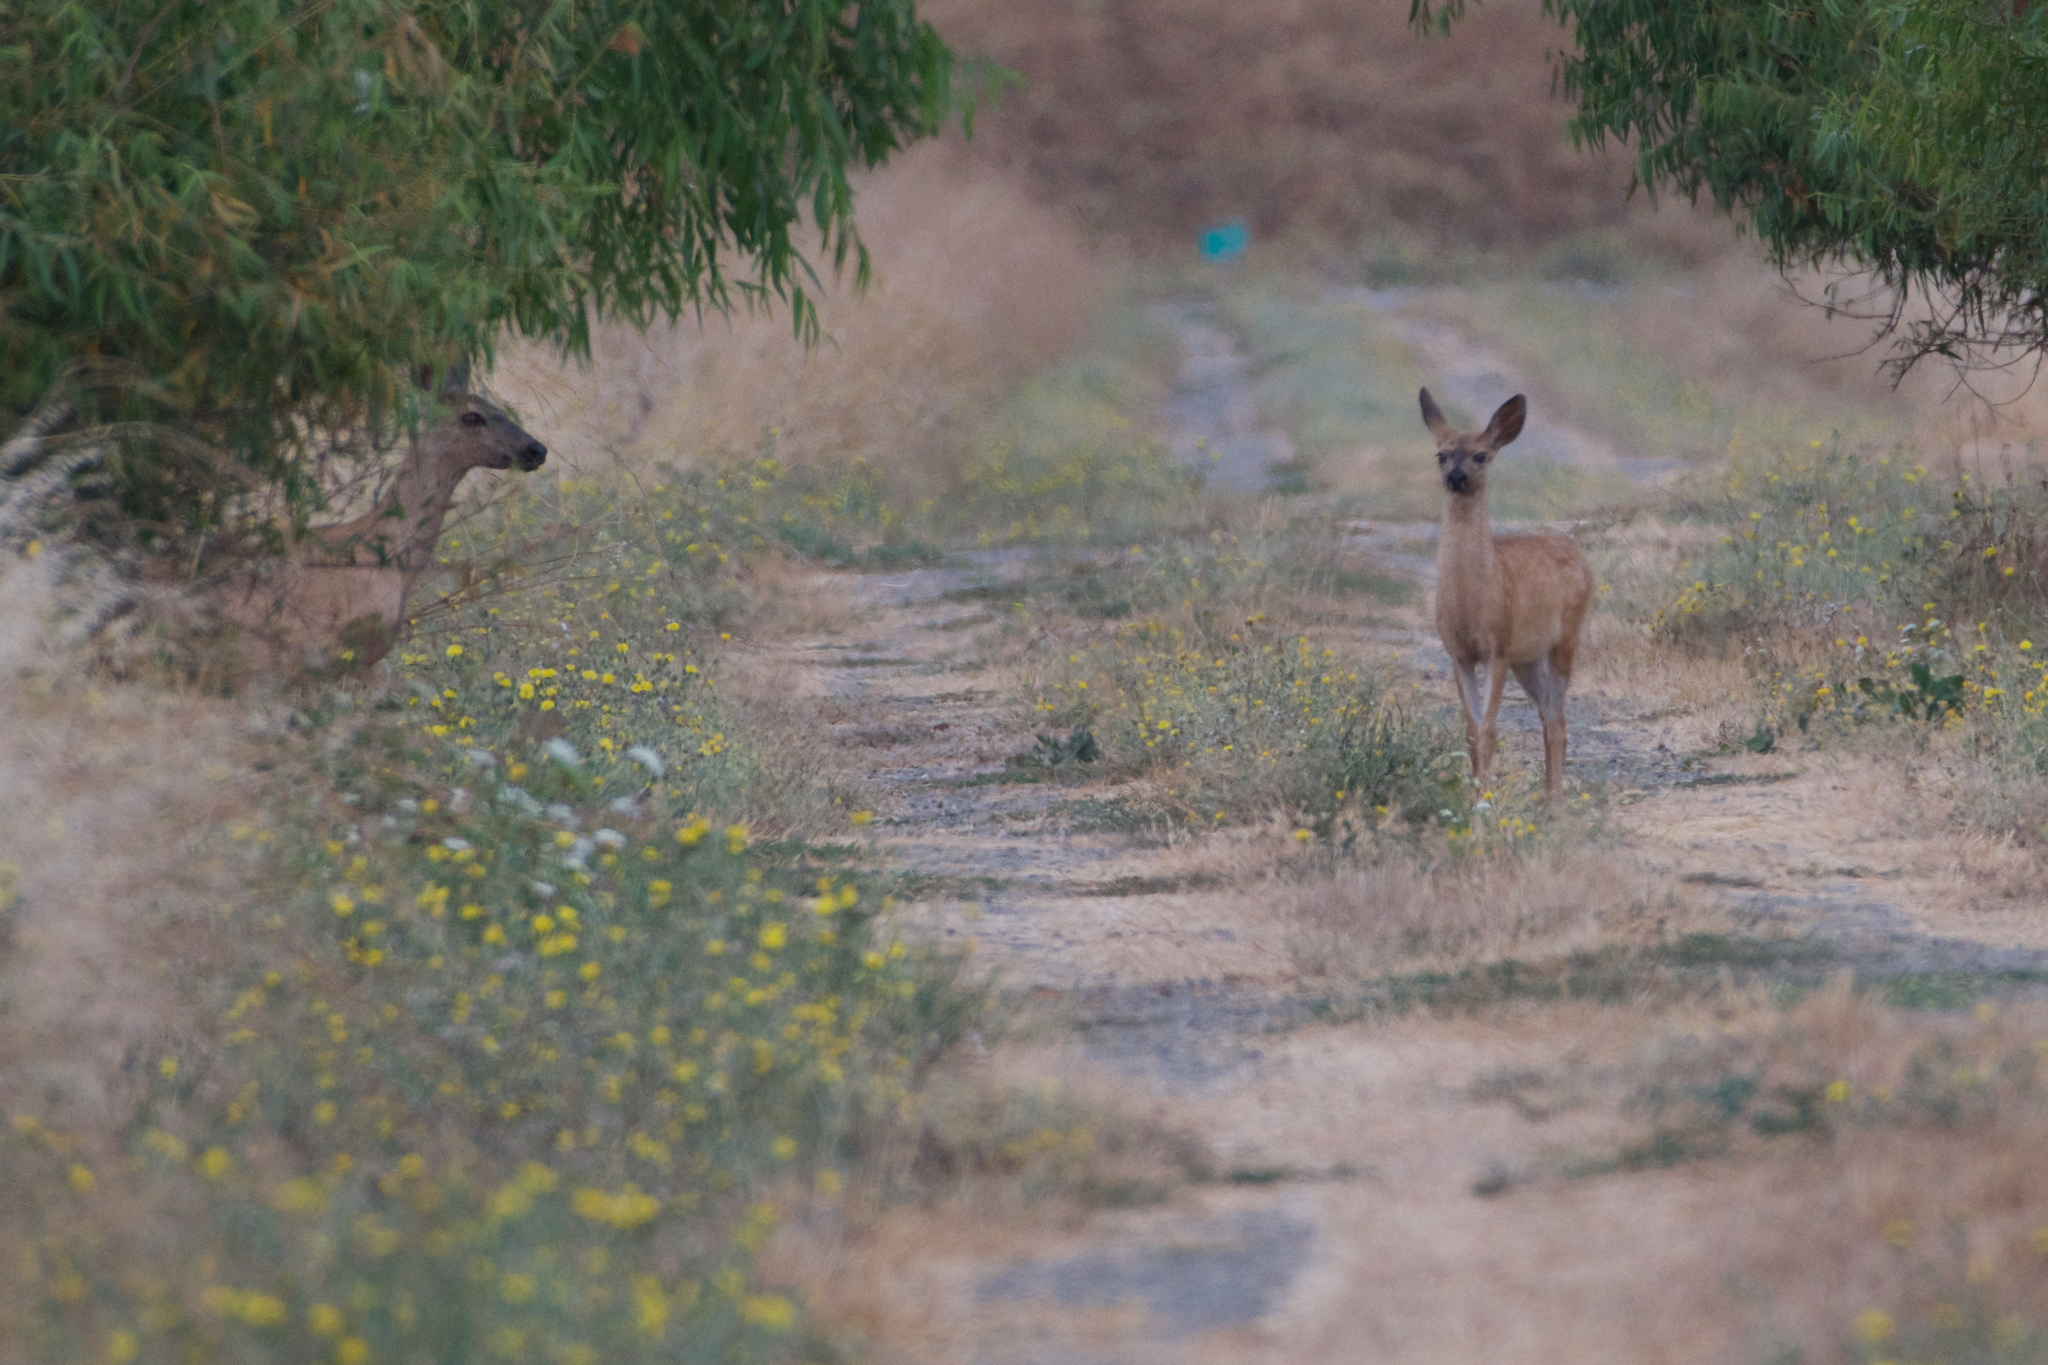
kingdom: Animalia
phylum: Chordata
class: Mammalia
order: Artiodactyla
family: Cervidae
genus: Odocoileus
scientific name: Odocoileus hemionus
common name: Mule deer
